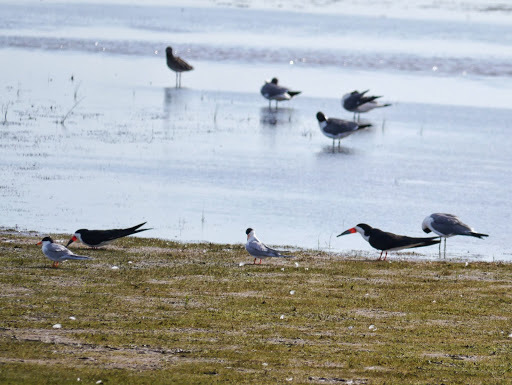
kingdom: Animalia
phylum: Chordata
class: Aves
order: Charadriiformes
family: Laridae
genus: Rynchops
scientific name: Rynchops niger
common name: Black skimmer
